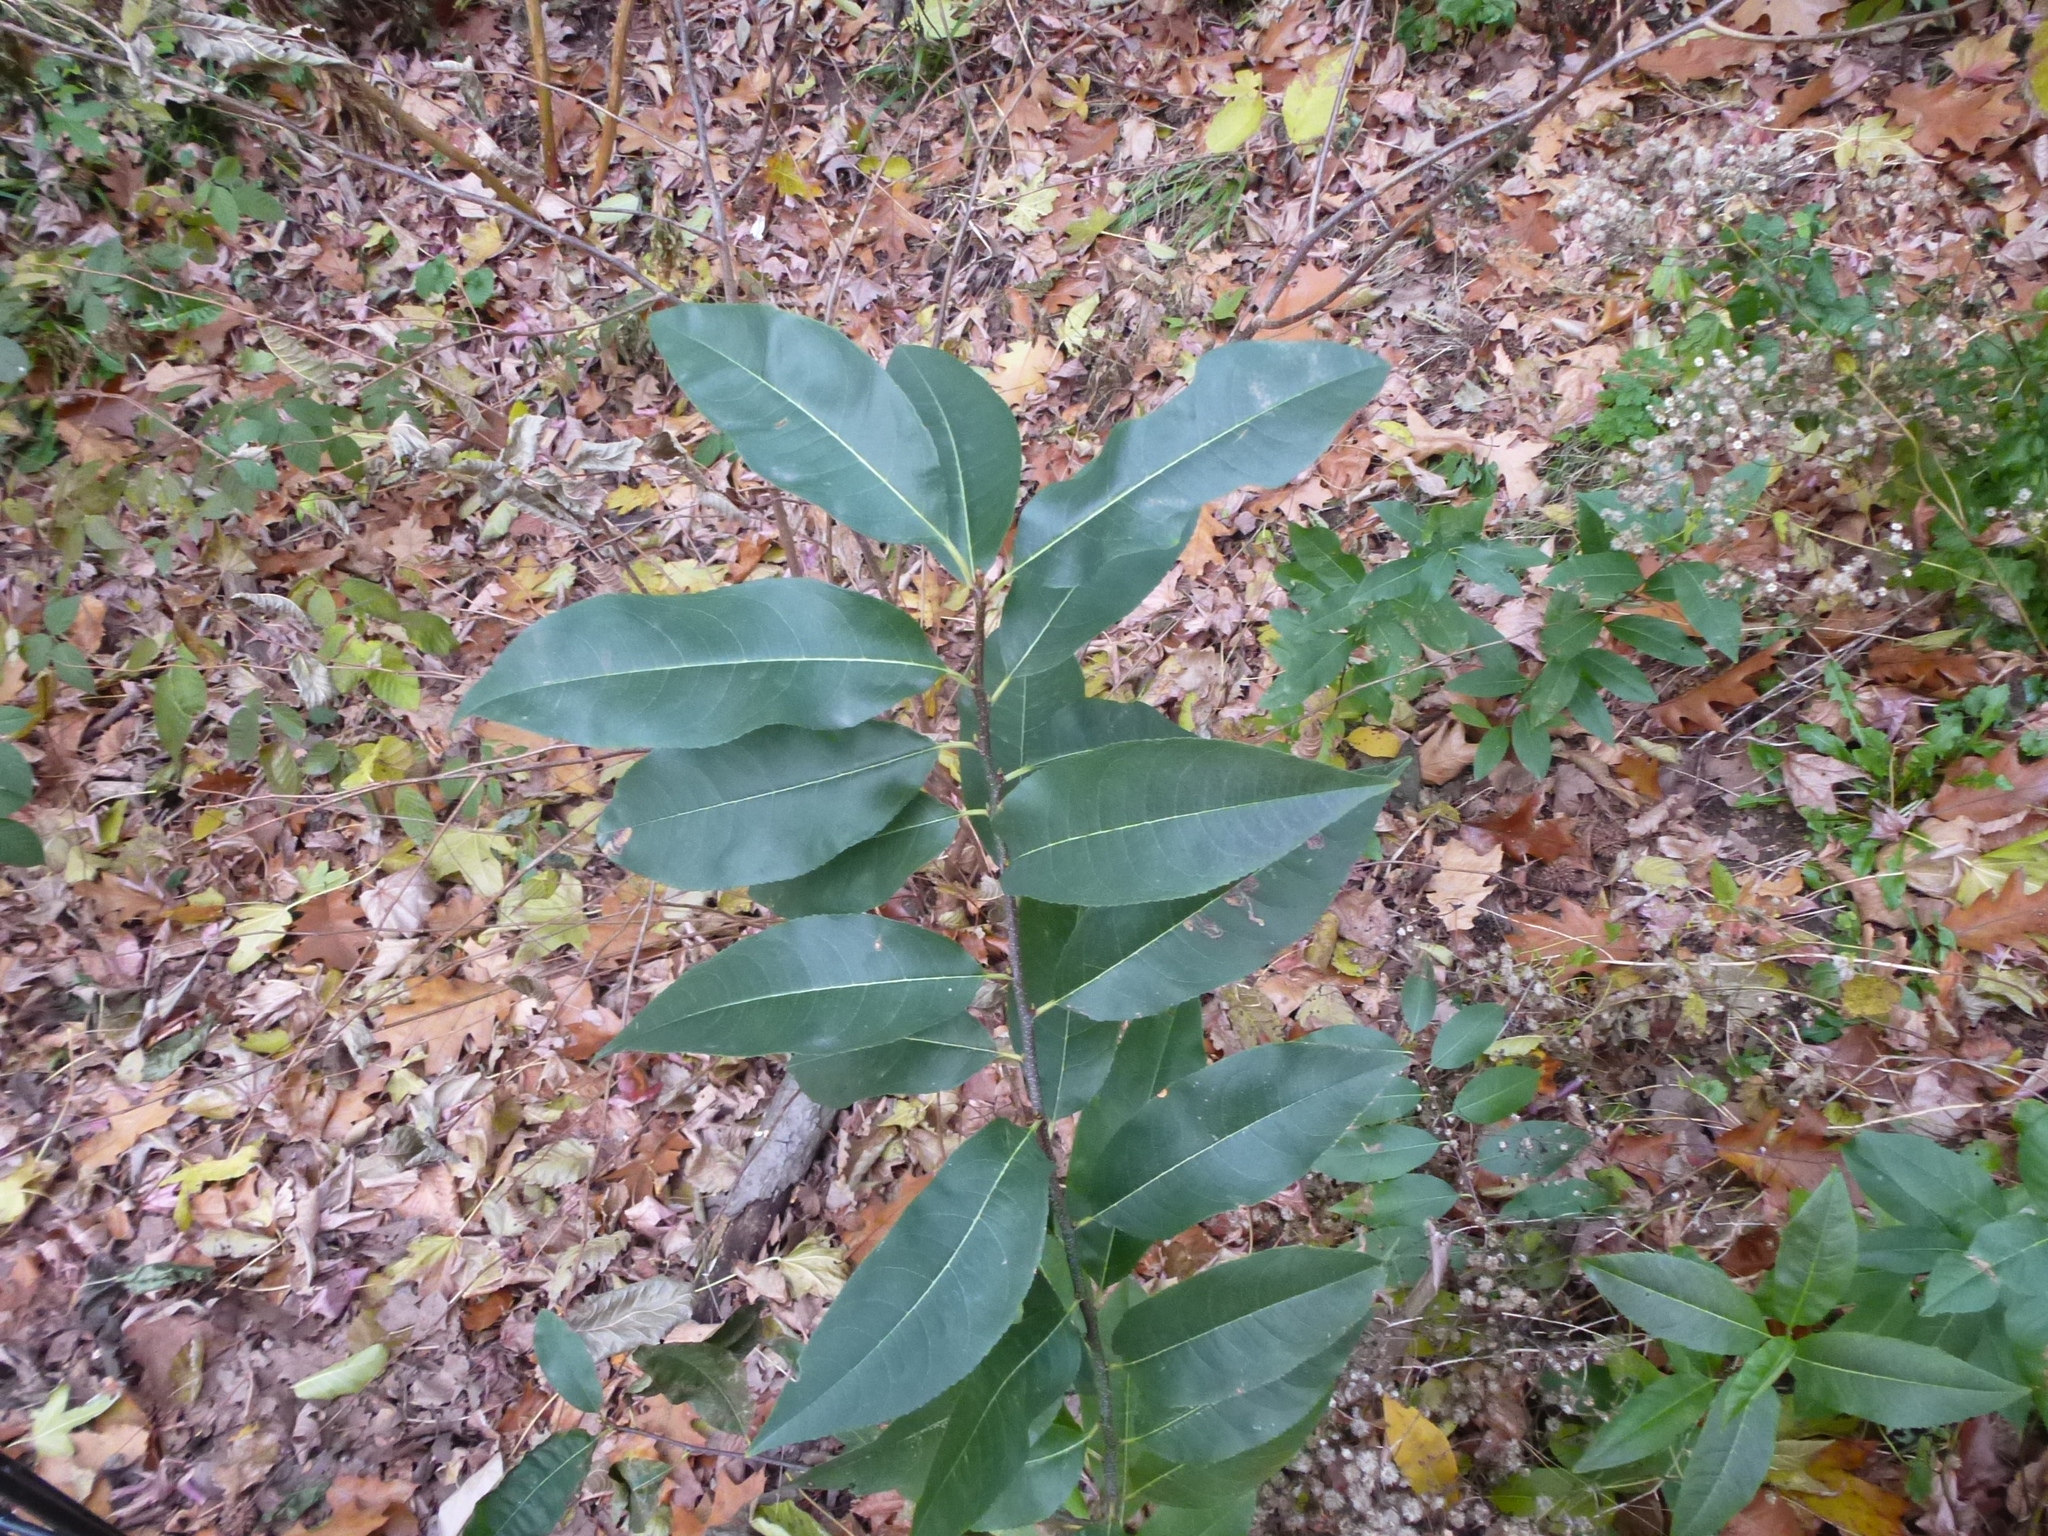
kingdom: Plantae
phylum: Tracheophyta
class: Magnoliopsida
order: Rosales
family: Rosaceae
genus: Prunus
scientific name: Prunus serotina
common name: Black cherry
